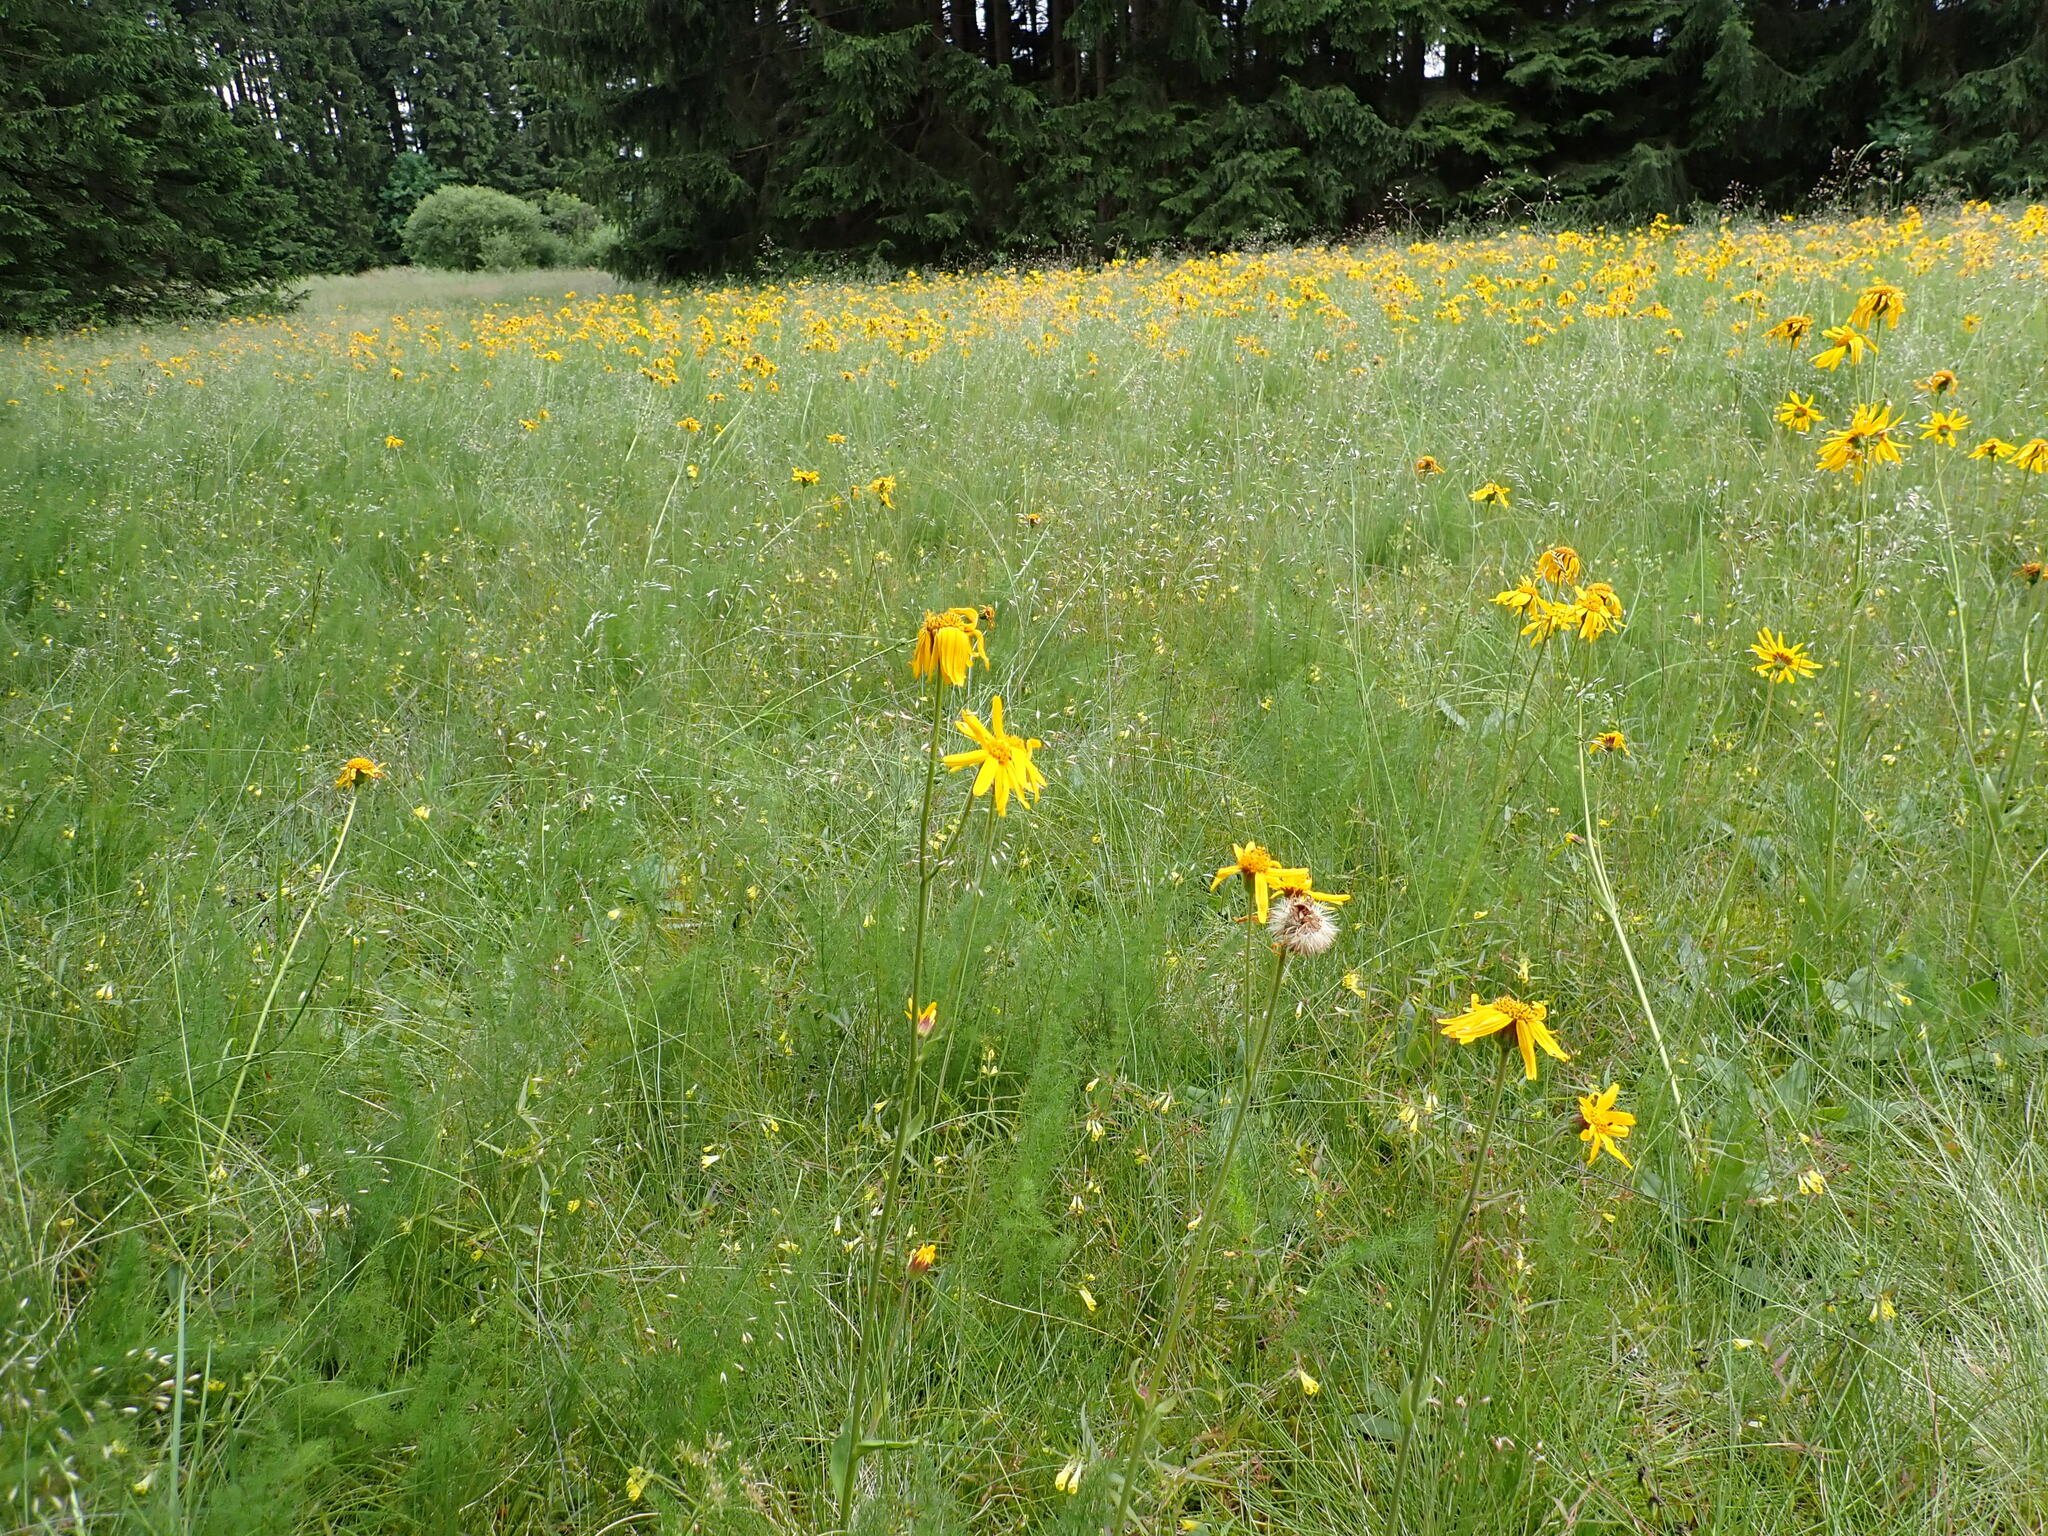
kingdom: Plantae
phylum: Tracheophyta
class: Magnoliopsida
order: Asterales
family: Asteraceae
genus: Arnica
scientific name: Arnica montana
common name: Leopard's bane
